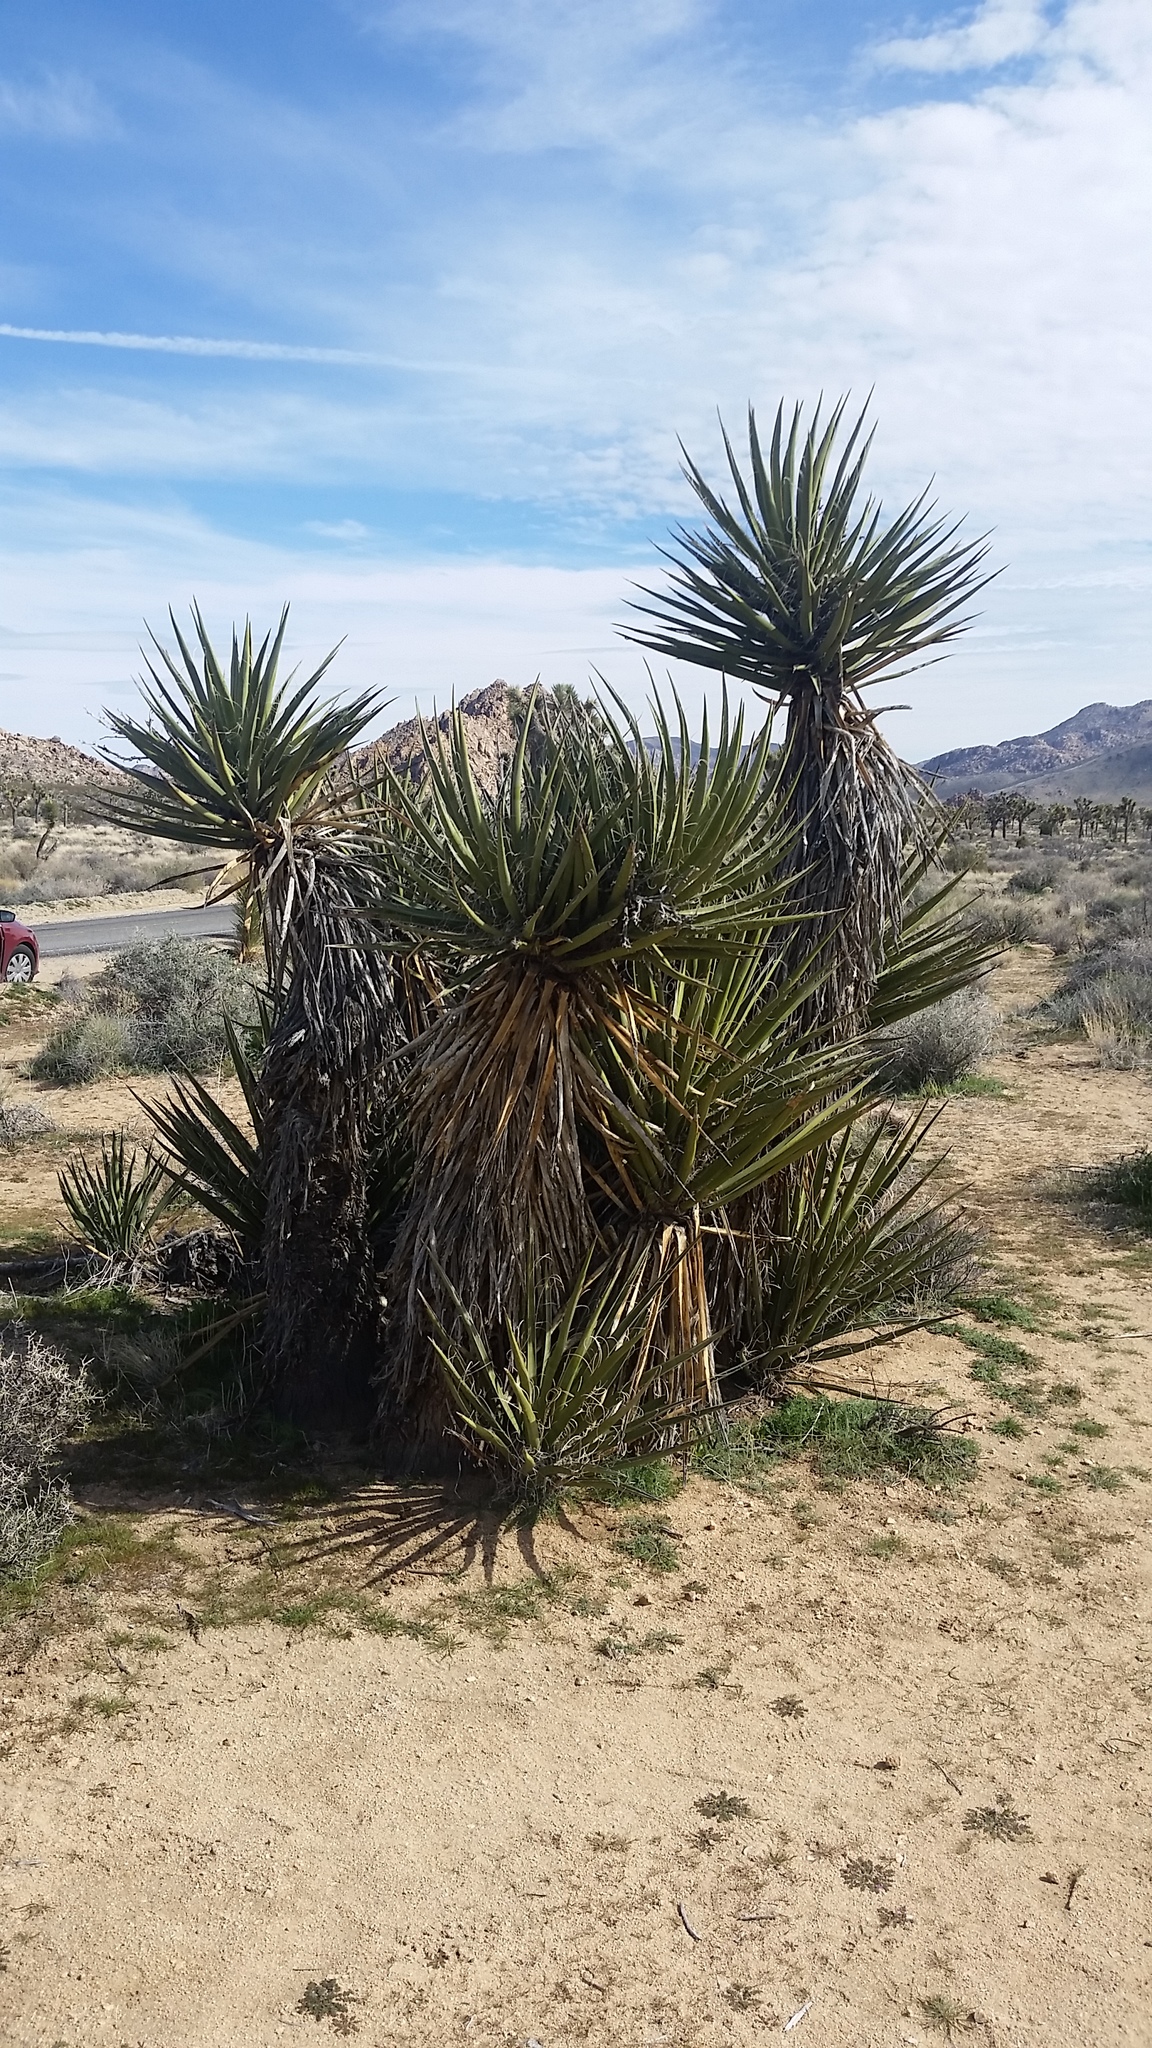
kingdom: Plantae
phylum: Tracheophyta
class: Liliopsida
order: Asparagales
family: Asparagaceae
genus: Yucca
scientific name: Yucca schidigera
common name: Mojave yucca
